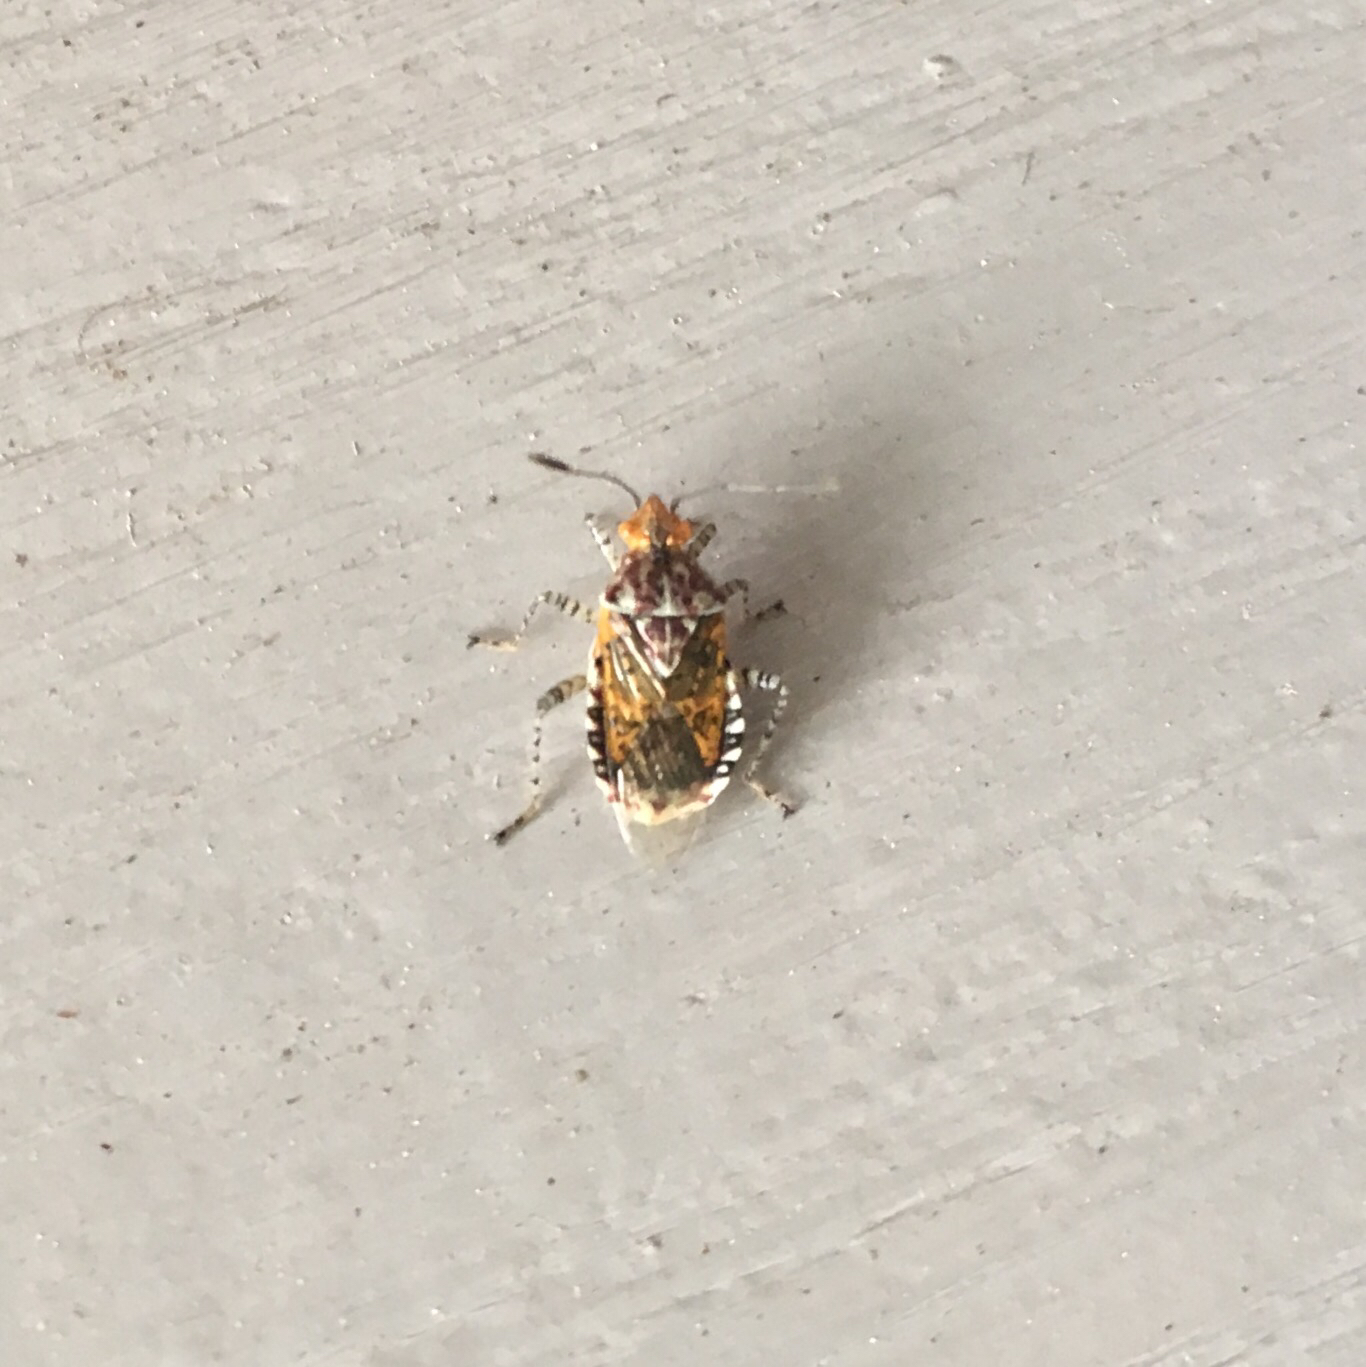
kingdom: Animalia
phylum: Arthropoda
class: Insecta
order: Hemiptera
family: Rhopalidae
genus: Niesthrea
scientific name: Niesthrea louisianica
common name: Scentless plant bug
